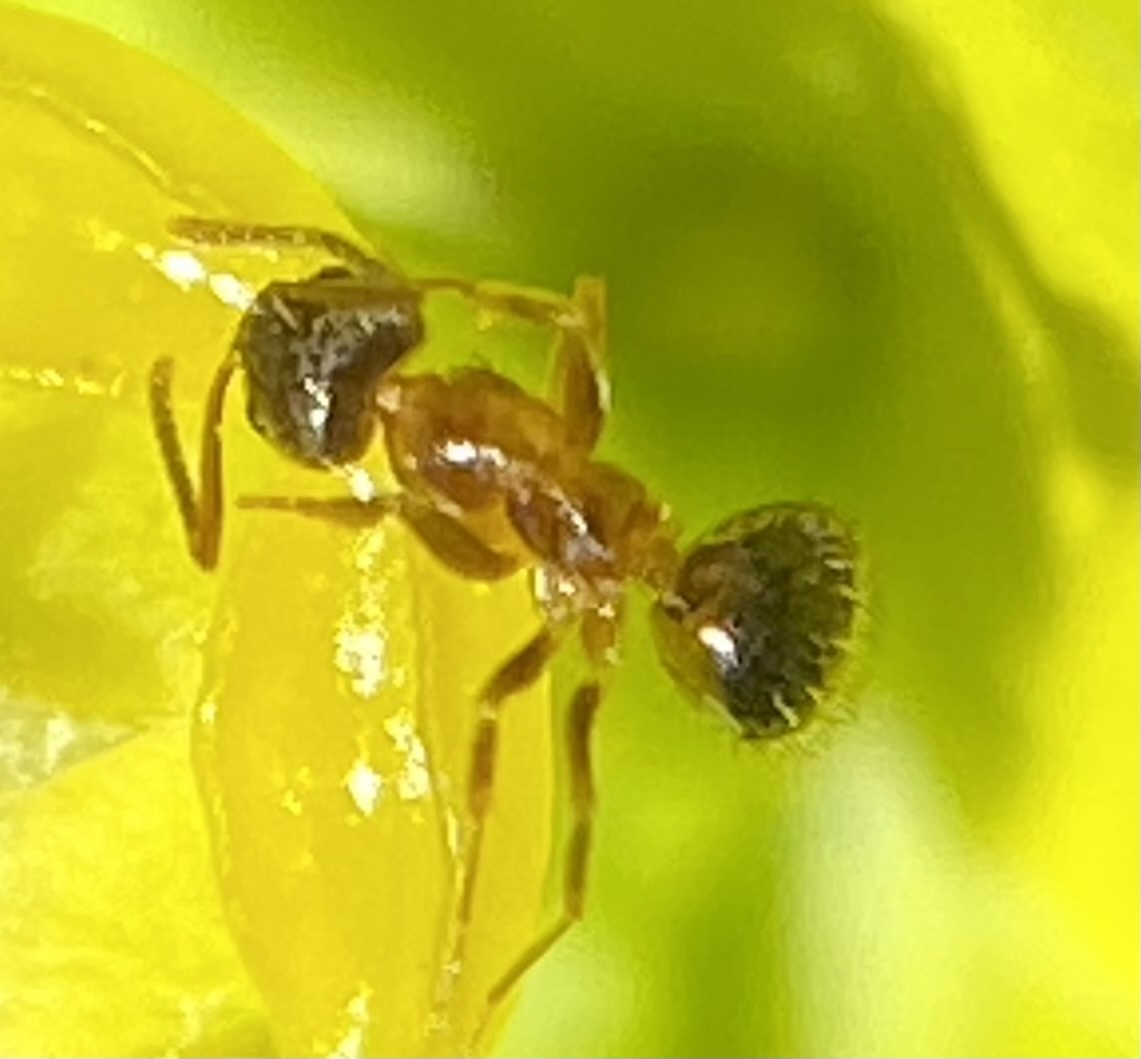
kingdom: Animalia
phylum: Arthropoda
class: Insecta
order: Hymenoptera
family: Formicidae
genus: Paratrechina
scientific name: Paratrechina vividula
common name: Nylander's crazy ant
